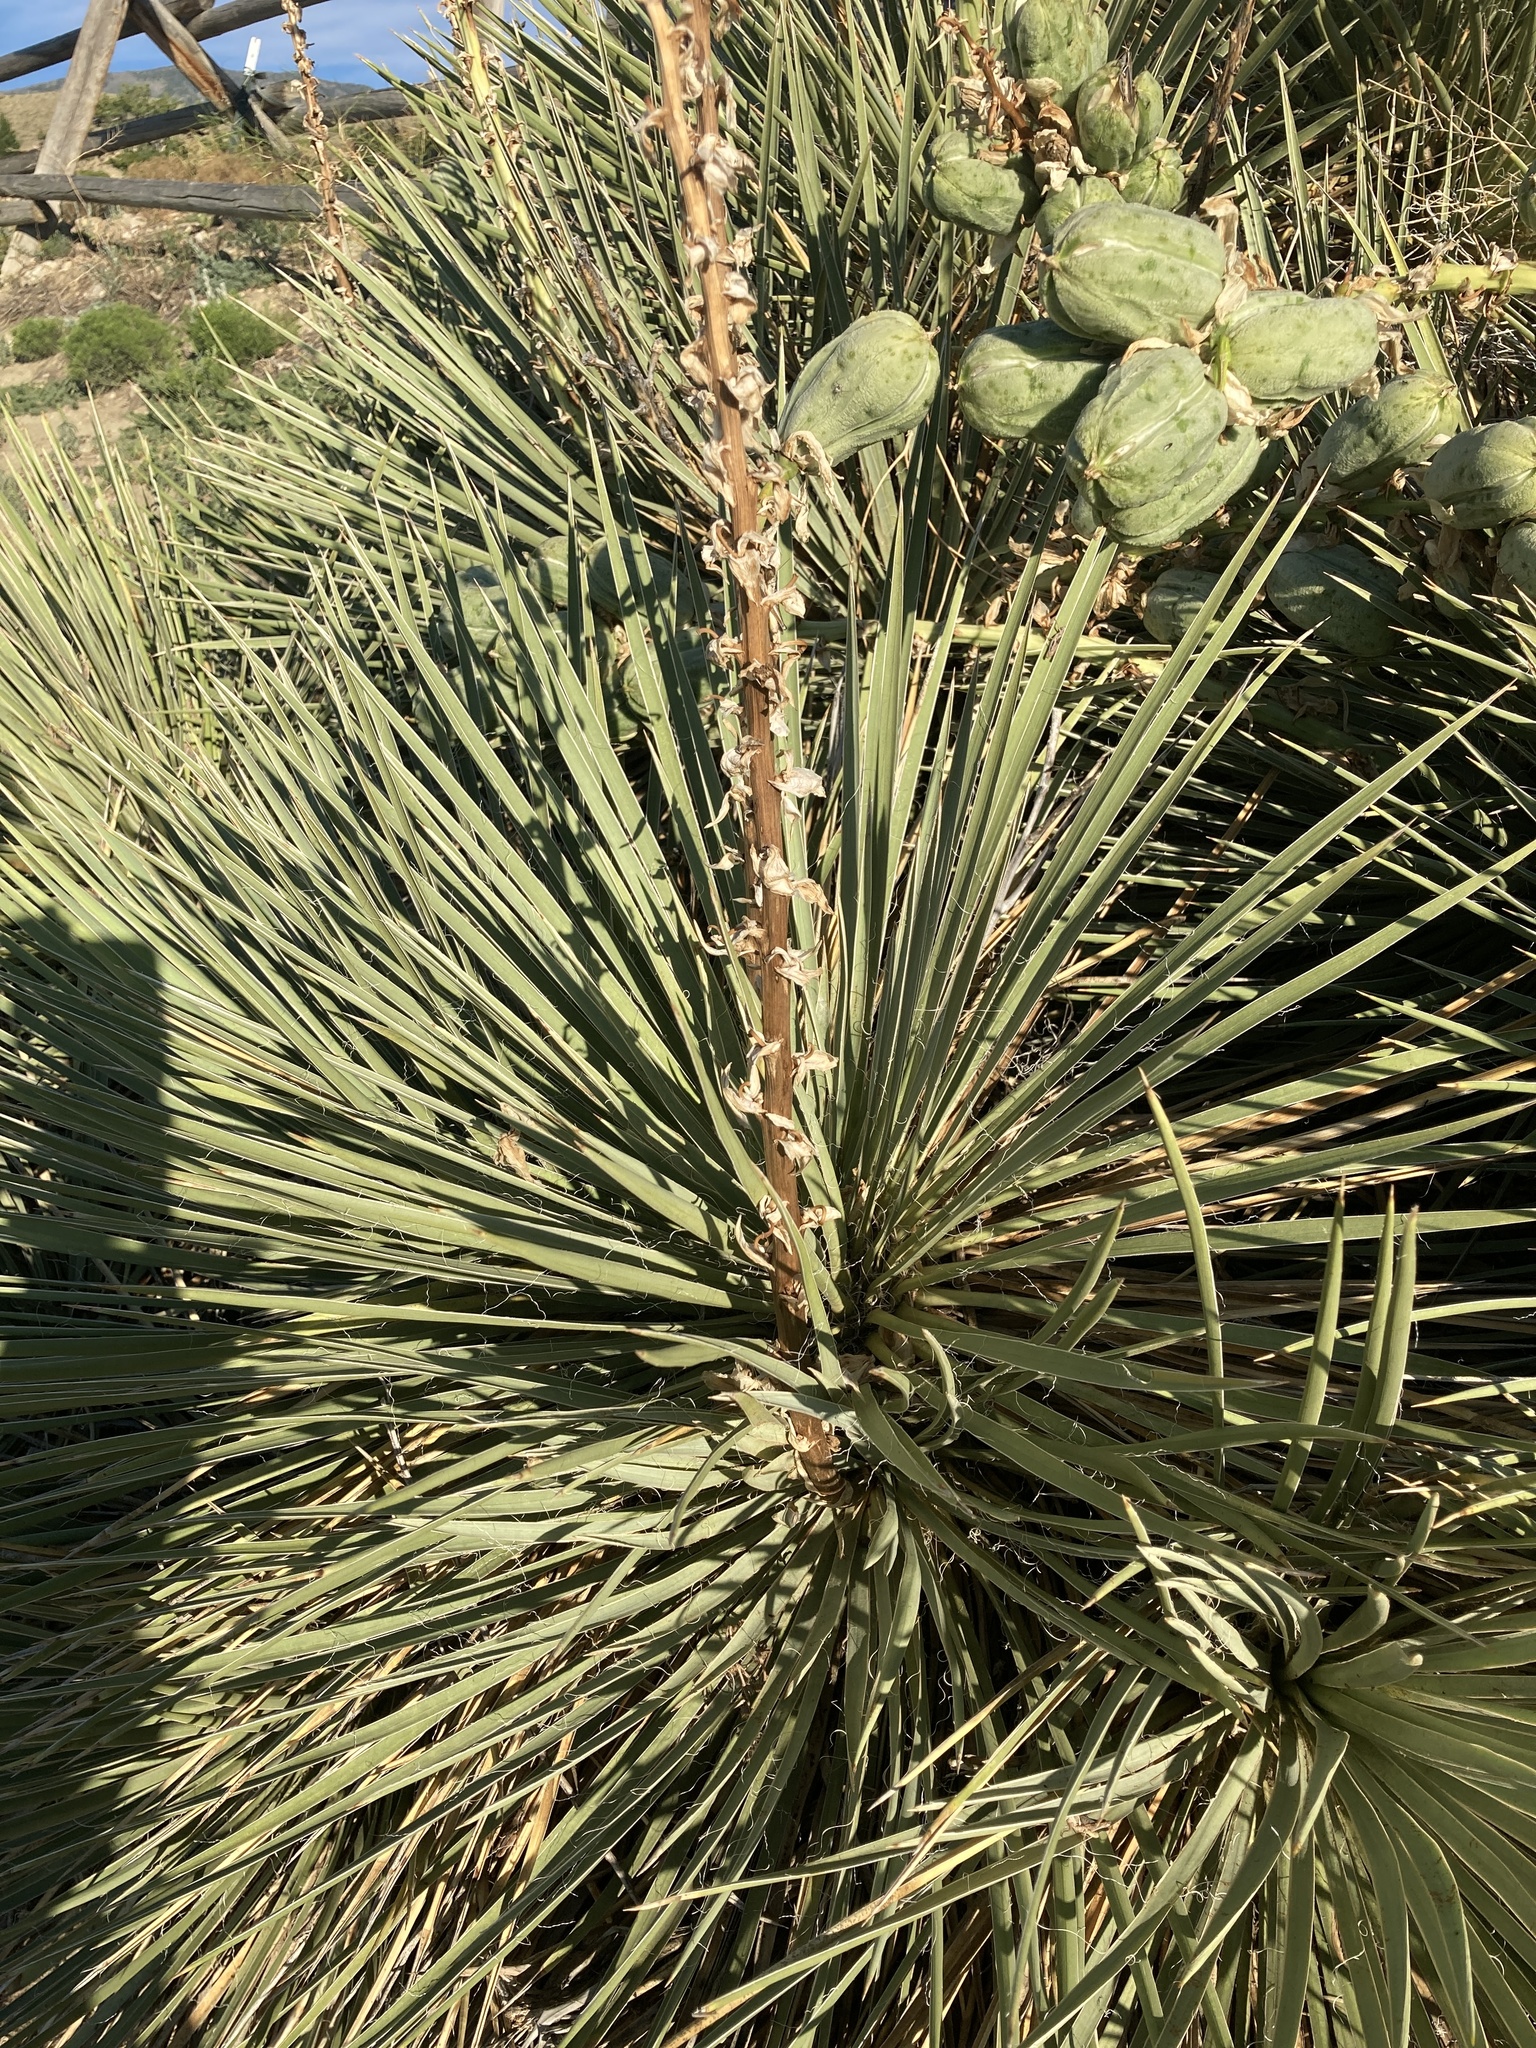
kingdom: Plantae
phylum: Tracheophyta
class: Liliopsida
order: Asparagales
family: Asparagaceae
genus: Yucca
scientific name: Yucca glauca
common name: Great plains yucca
